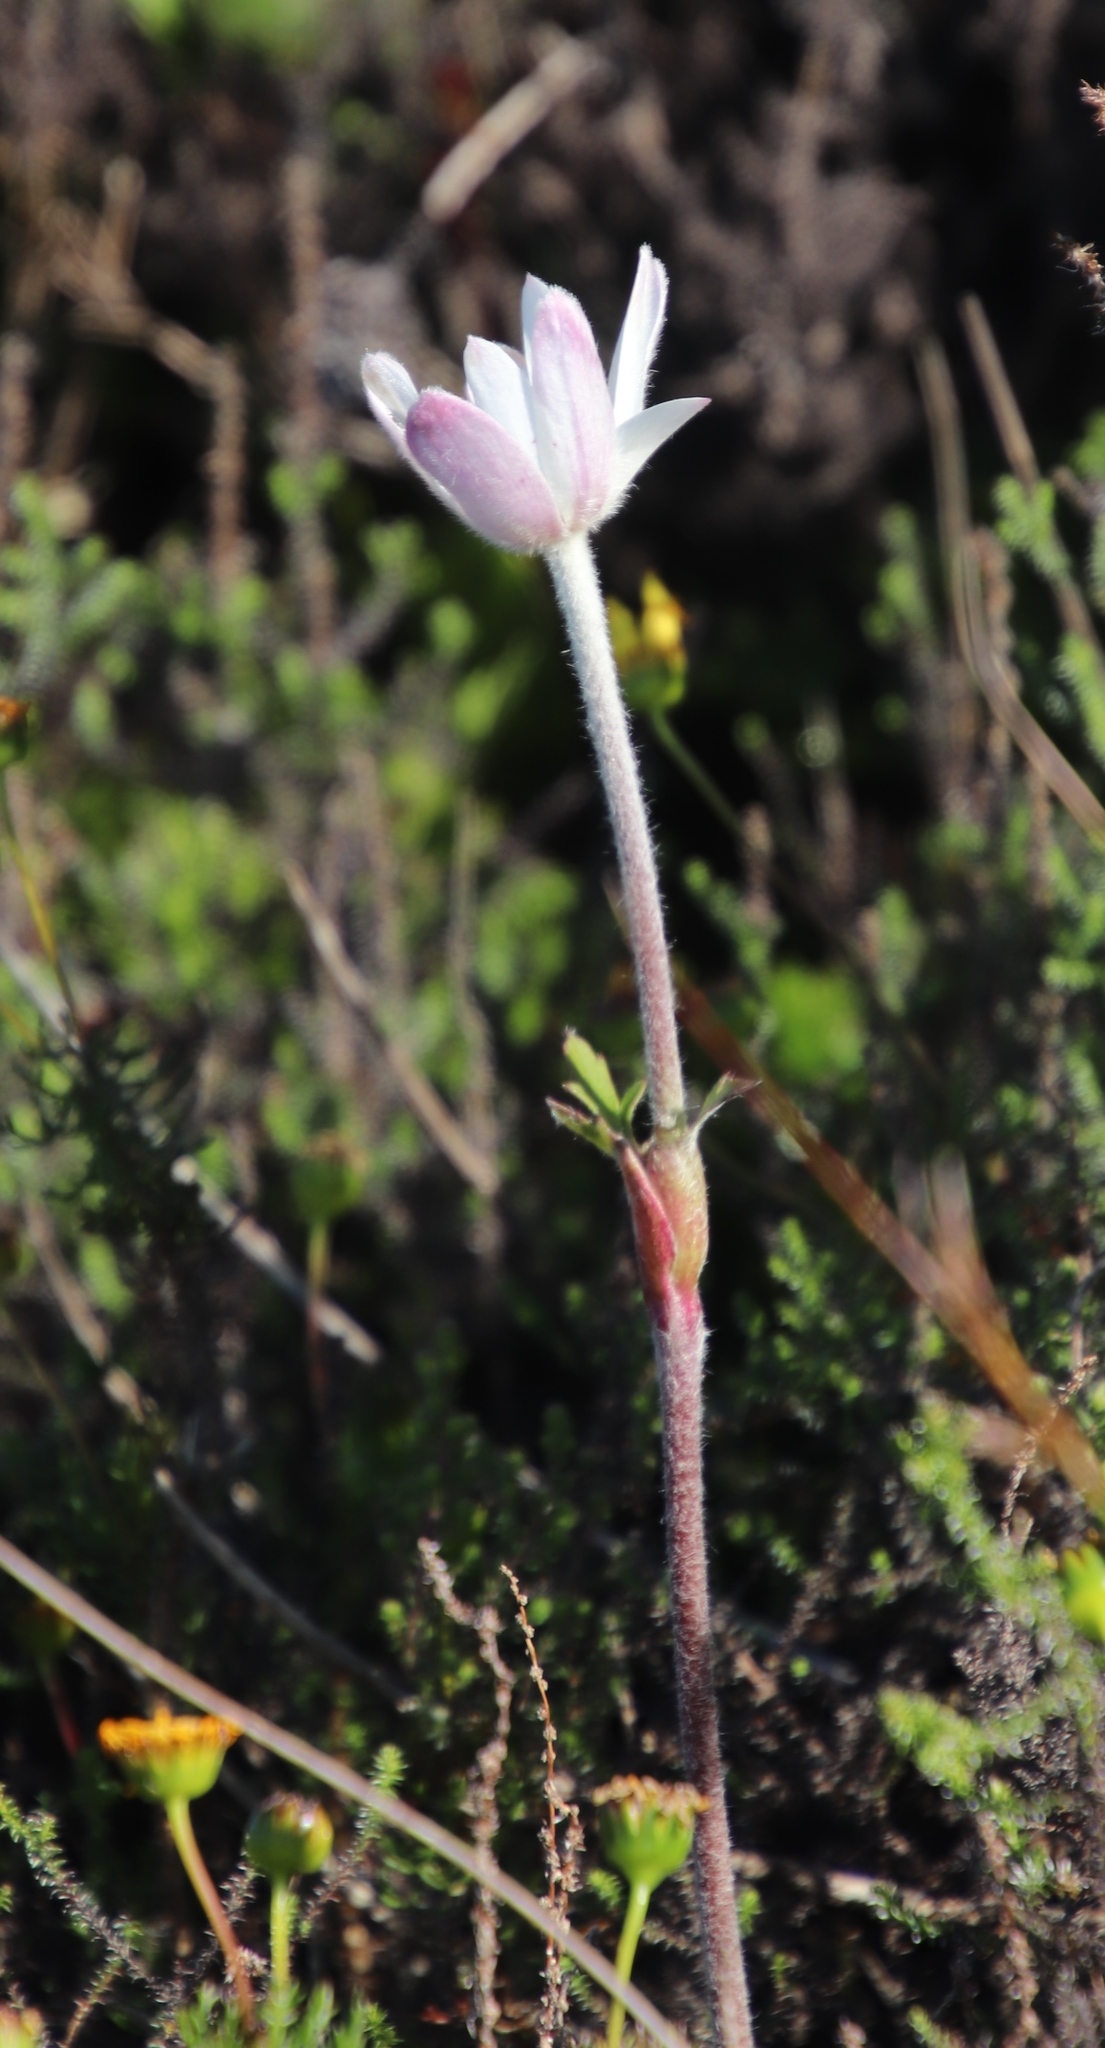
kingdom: Plantae
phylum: Tracheophyta
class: Magnoliopsida
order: Ranunculales
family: Ranunculaceae
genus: Knowltonia
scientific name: Knowltonia tenuifolia
